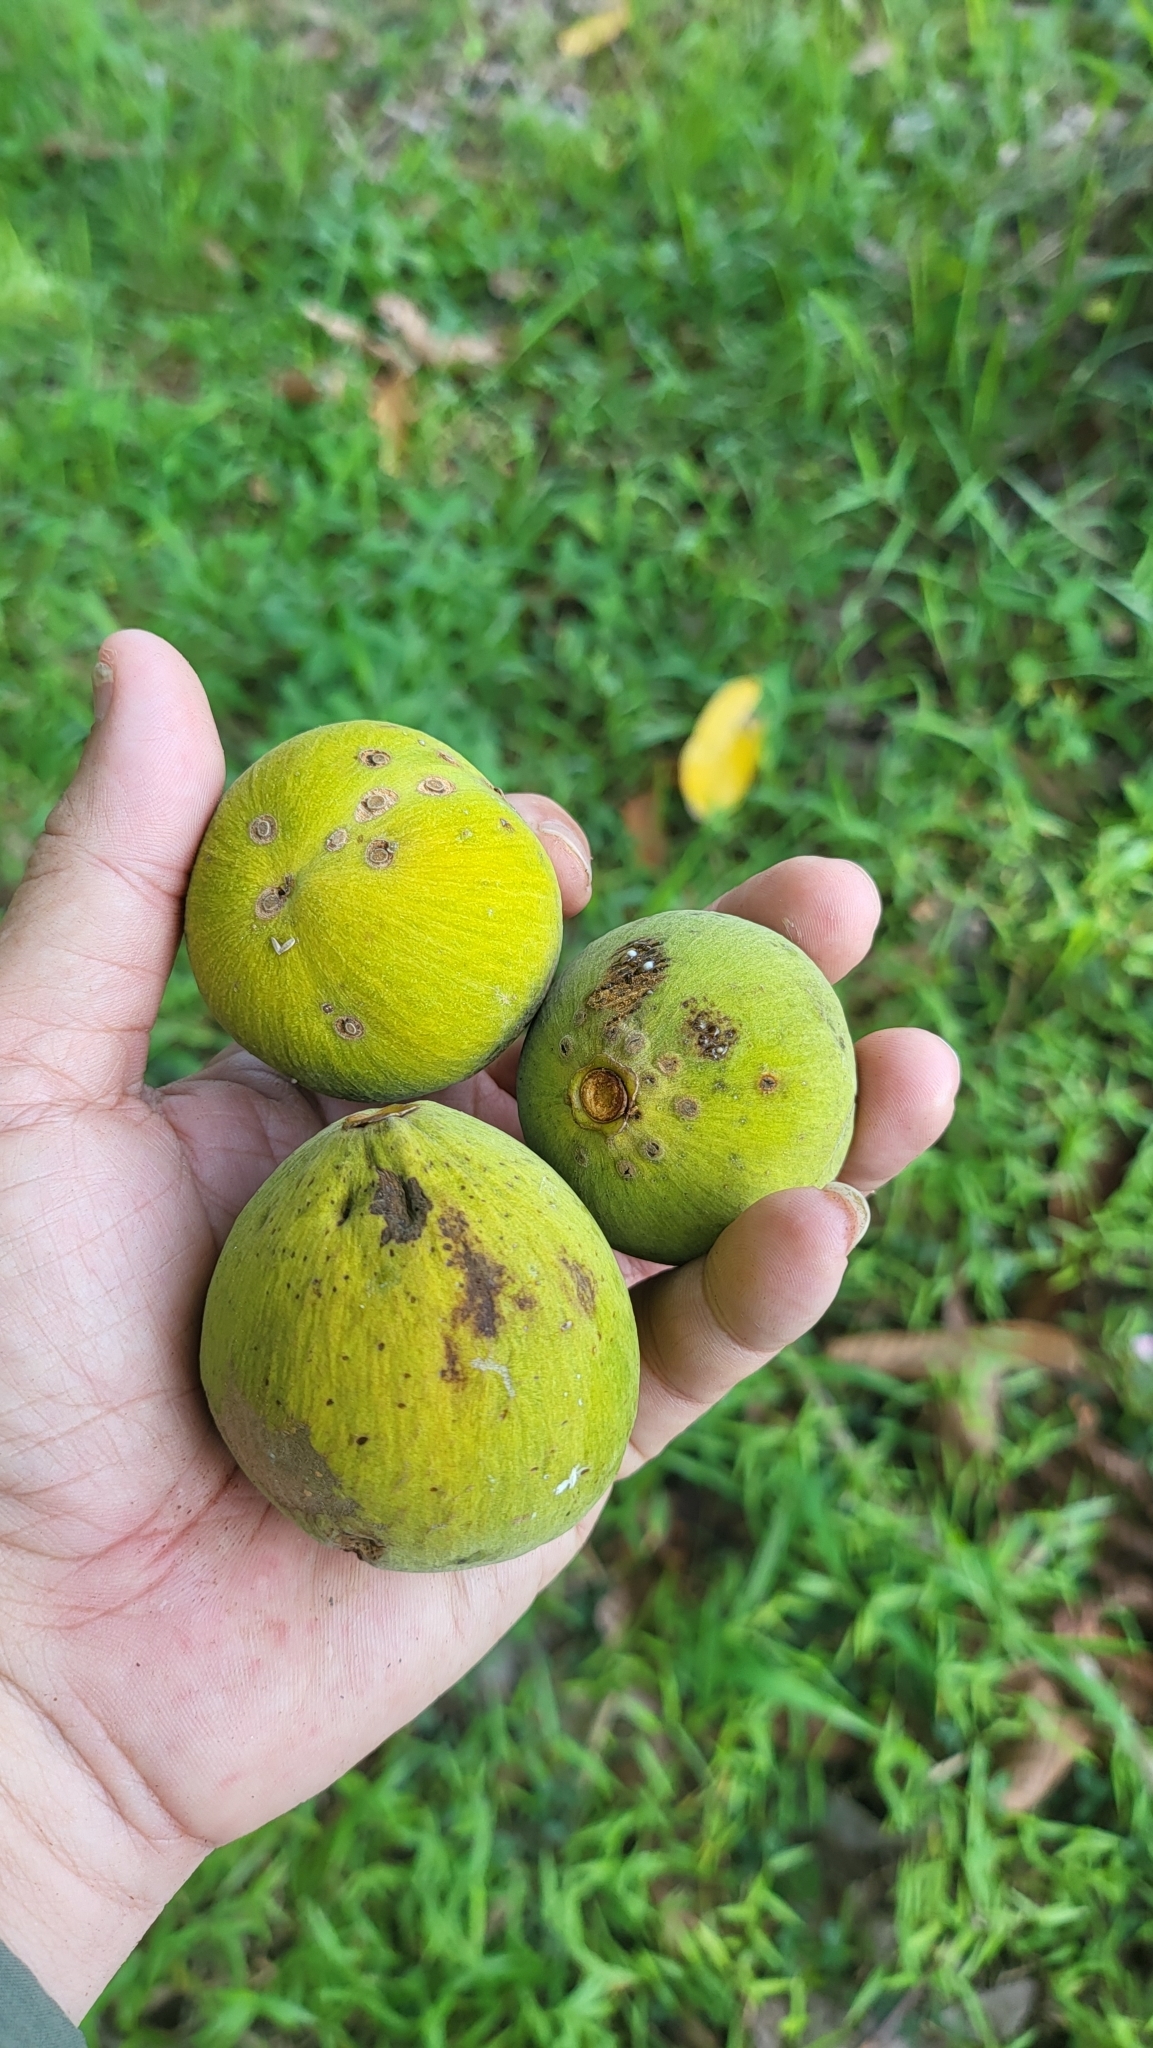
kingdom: Plantae
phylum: Tracheophyta
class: Magnoliopsida
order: Sapindales
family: Meliaceae
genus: Sandoricum
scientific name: Sandoricum koetjape
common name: Santol
